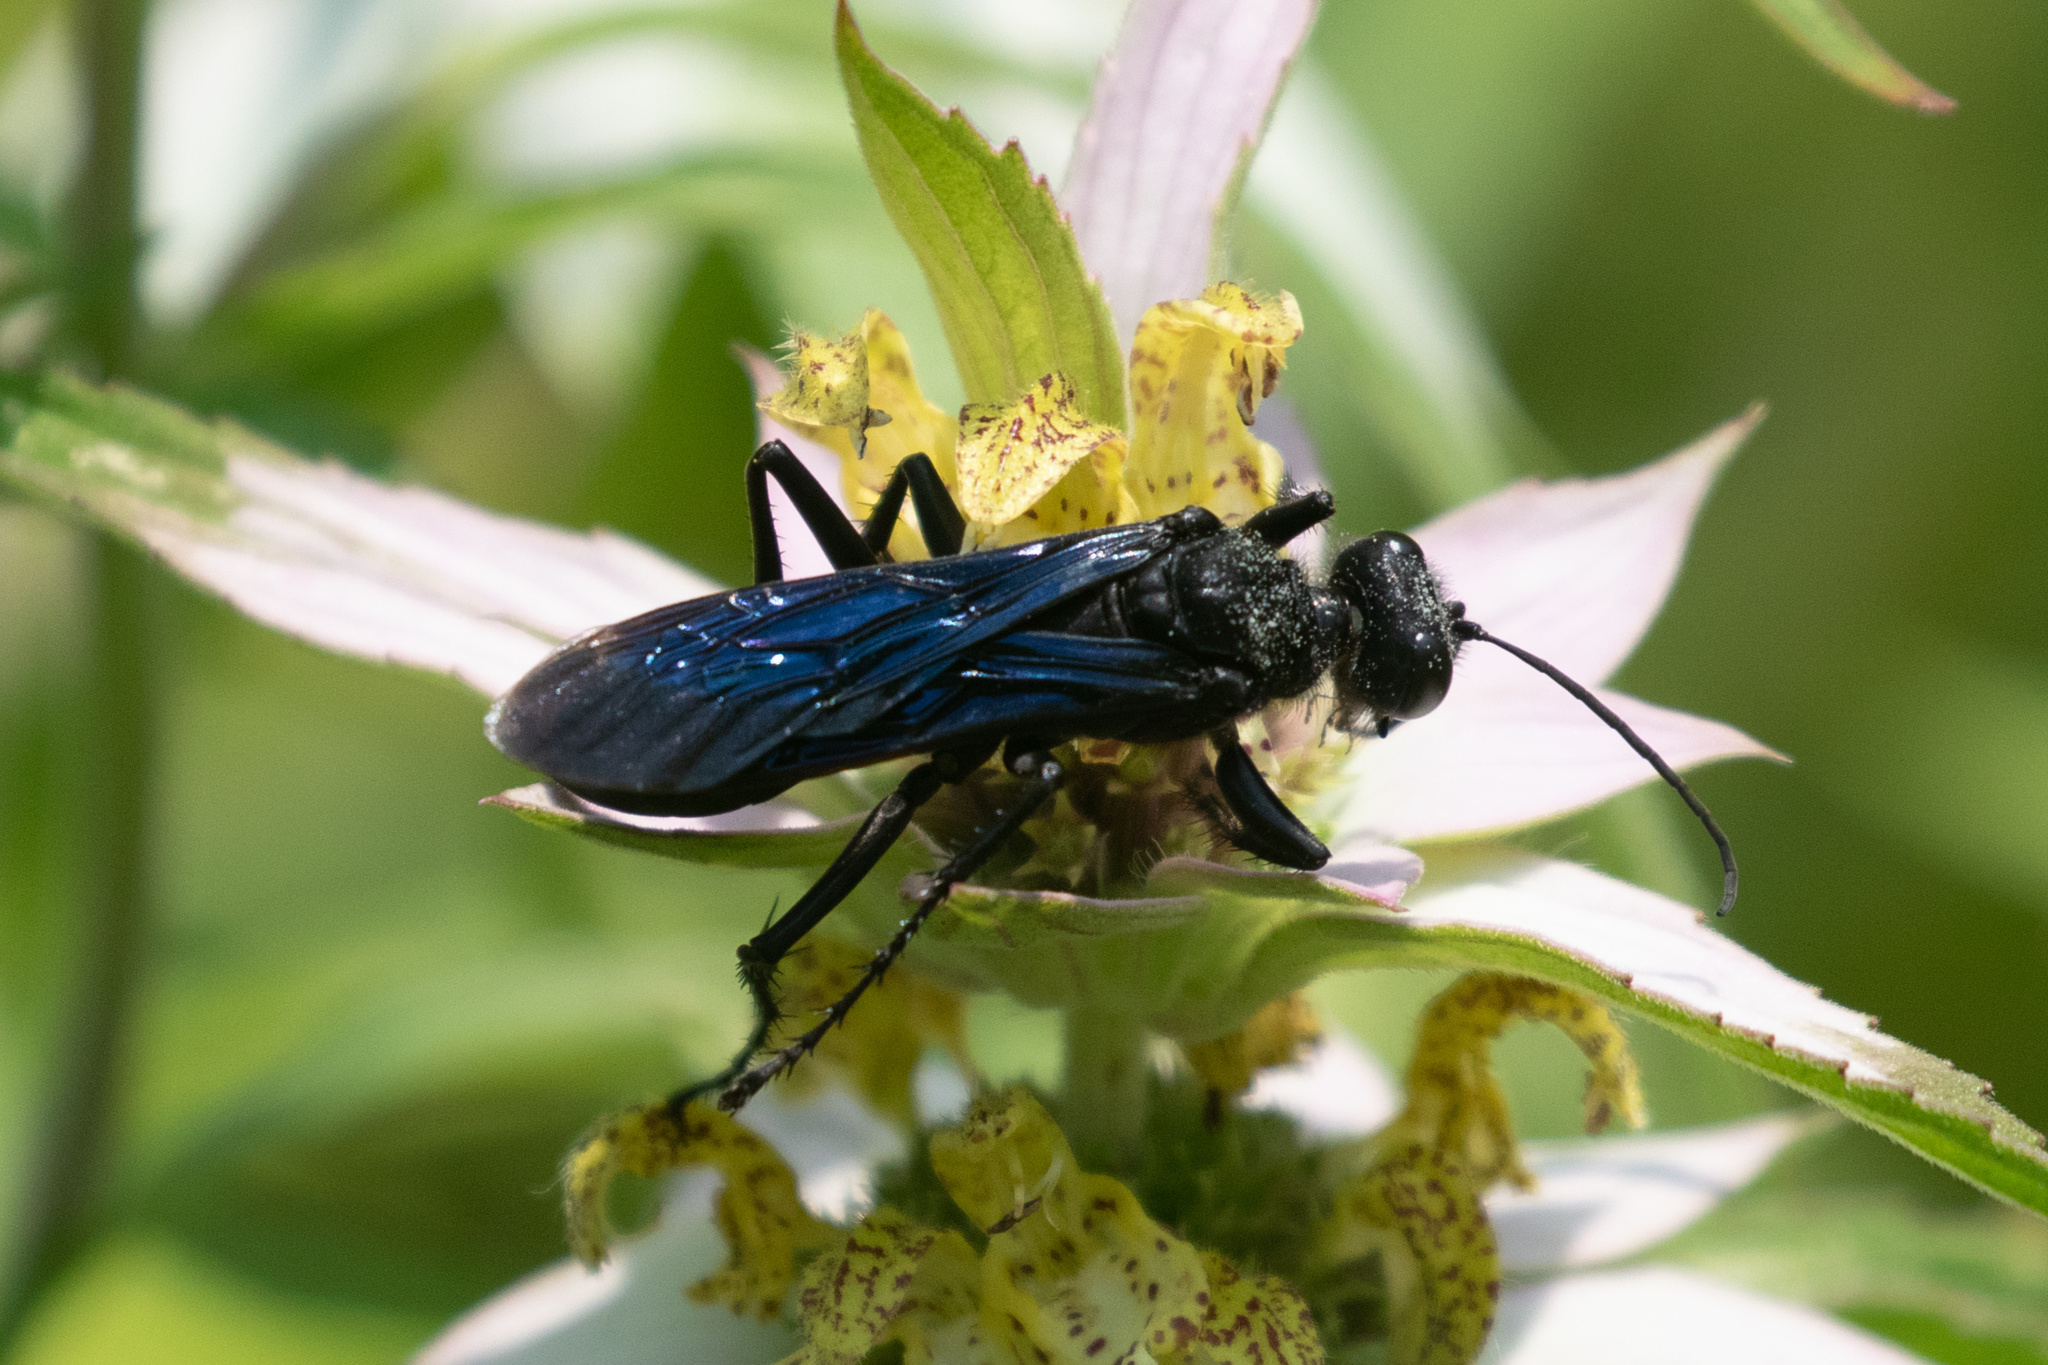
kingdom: Animalia
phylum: Arthropoda
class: Insecta
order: Hymenoptera
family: Sphecidae
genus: Sphex
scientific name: Sphex pensylvanicus
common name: Great black digger wasp
